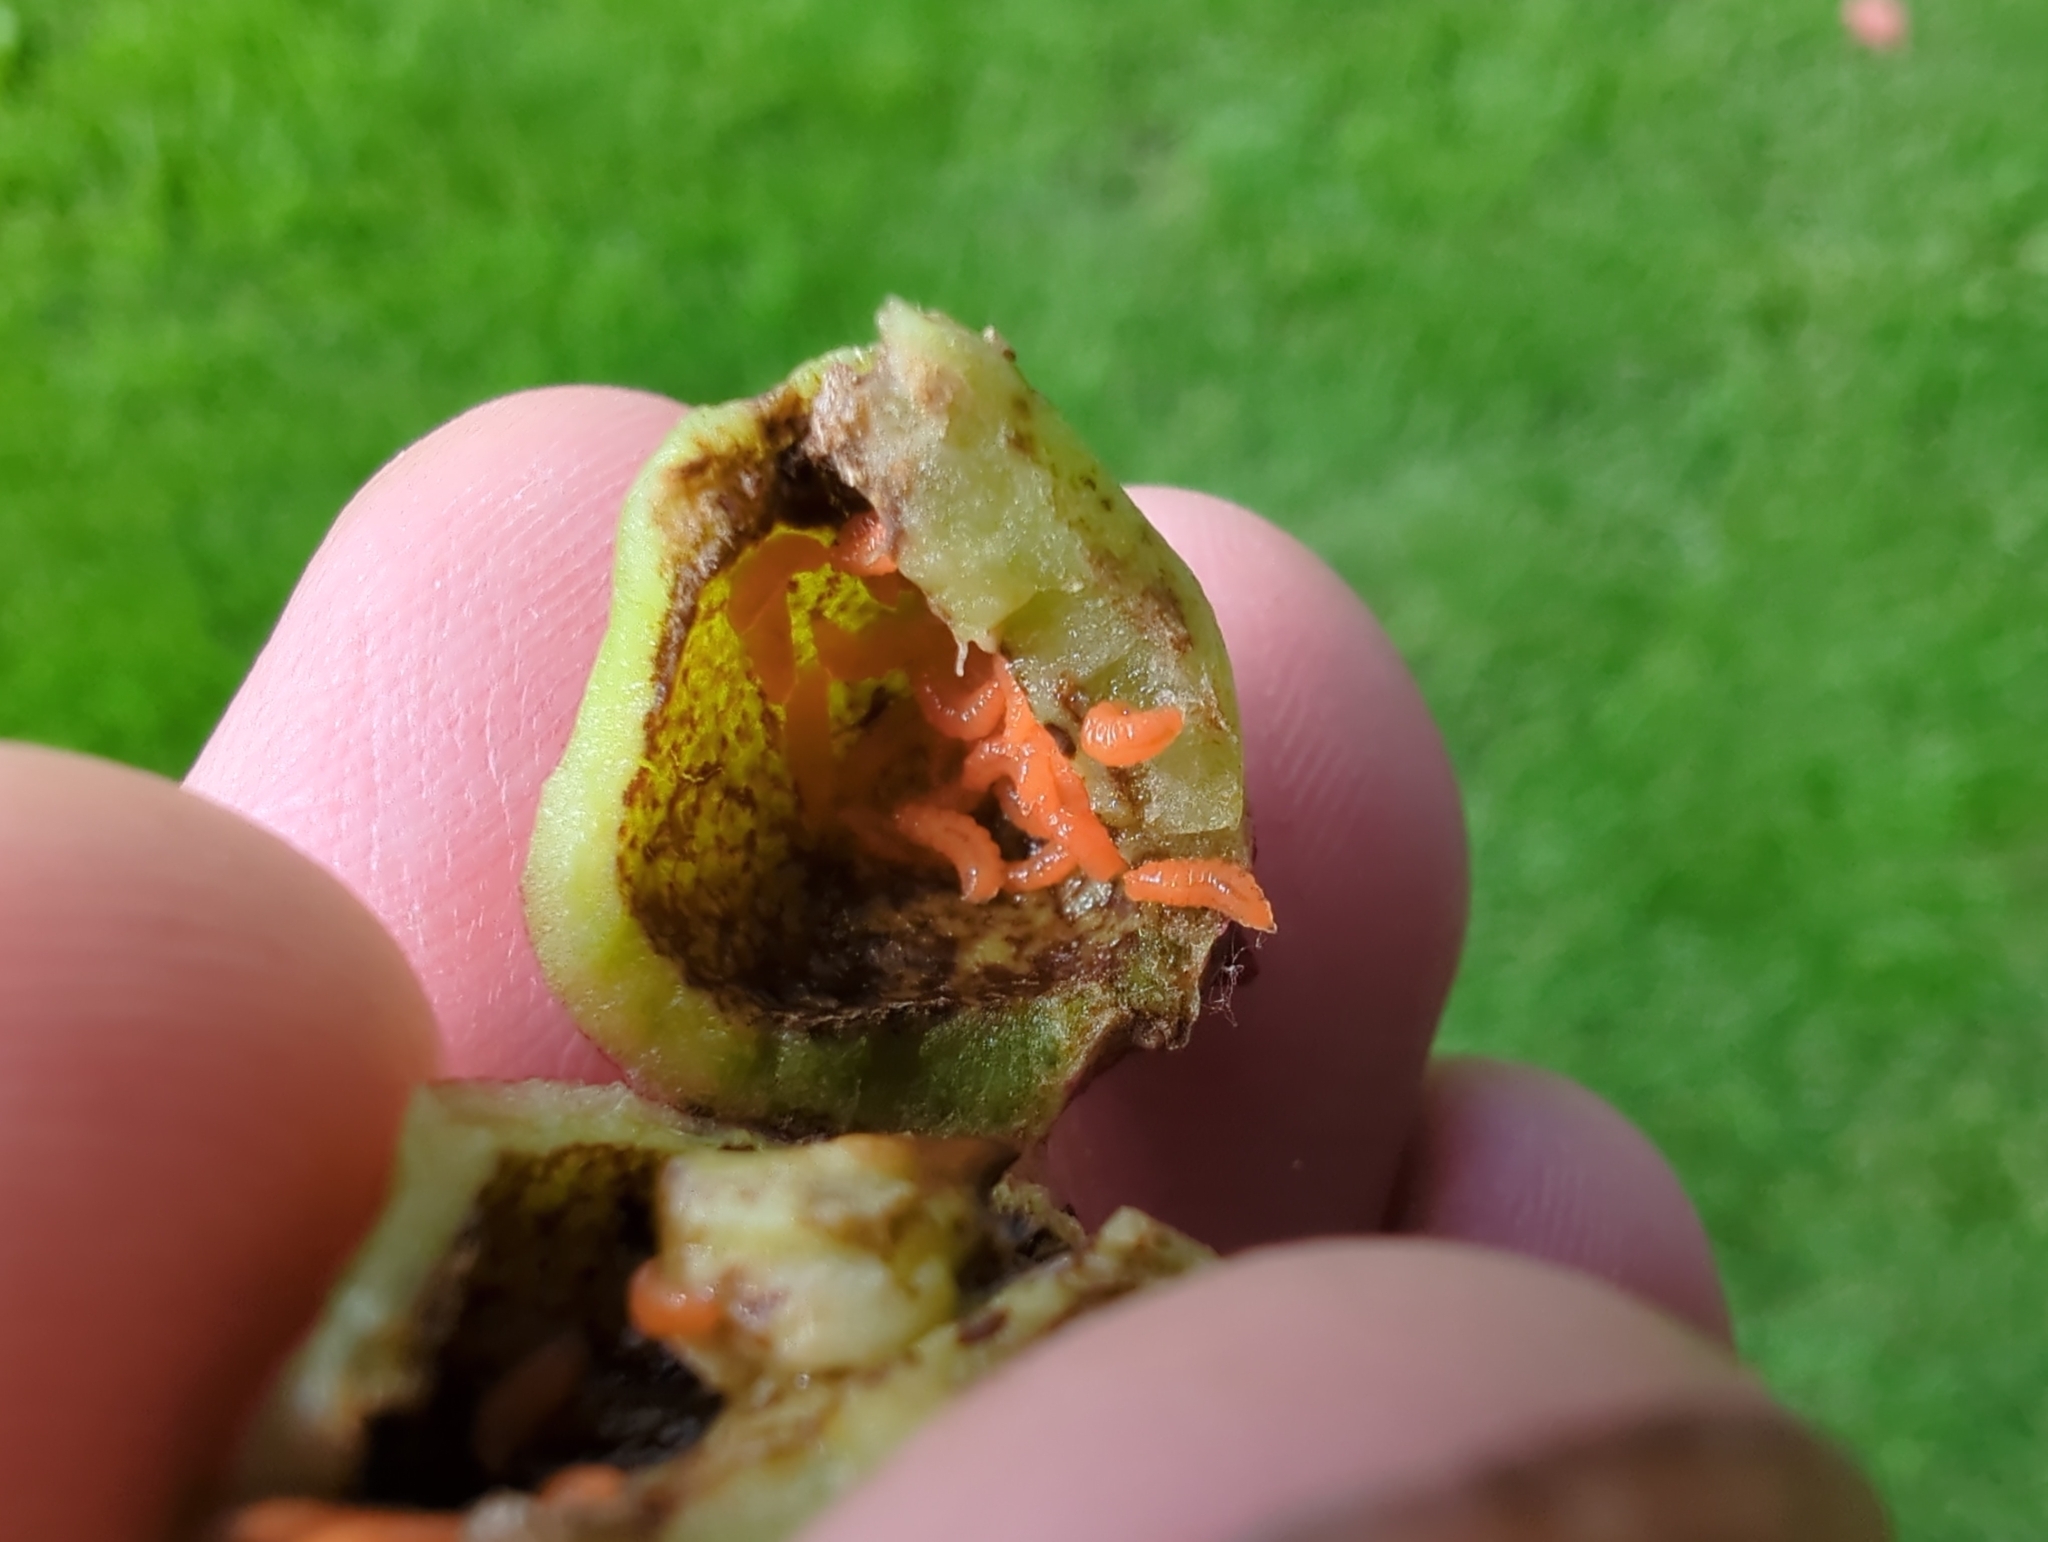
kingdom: Animalia
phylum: Arthropoda
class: Insecta
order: Diptera
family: Cecidomyiidae
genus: Contarinia
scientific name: Contarinia virginianiae
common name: Chokecherry midge
